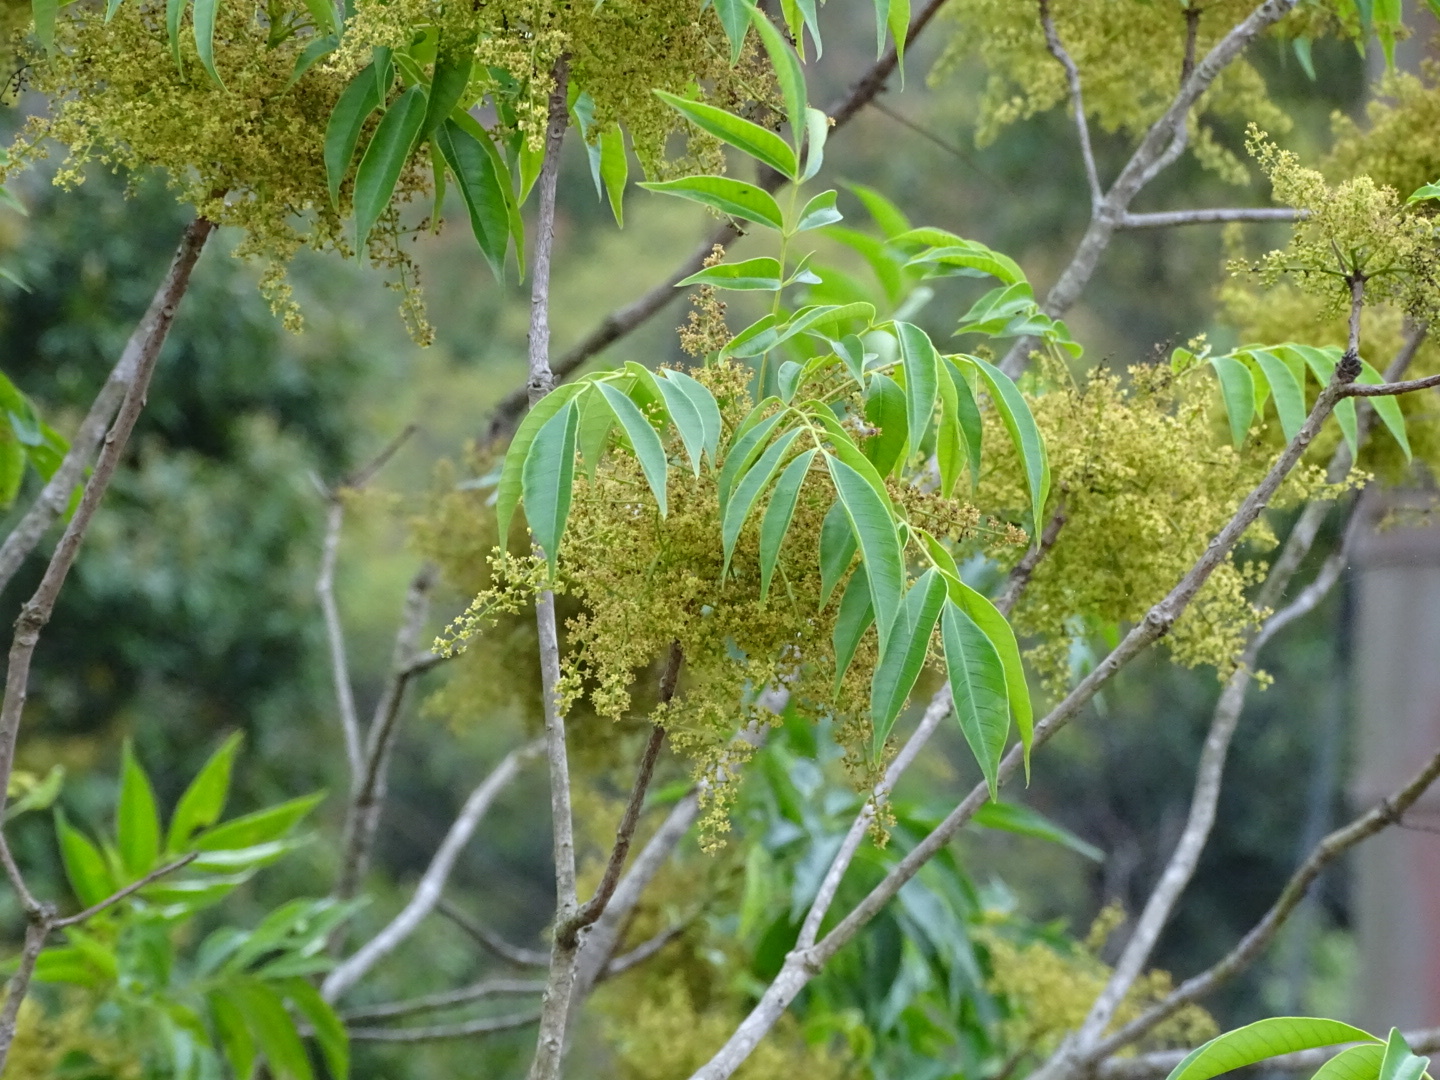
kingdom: Plantae
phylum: Tracheophyta
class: Magnoliopsida
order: Sapindales
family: Anacardiaceae
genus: Toxicodendron
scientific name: Toxicodendron succedaneum
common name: Wax tree
